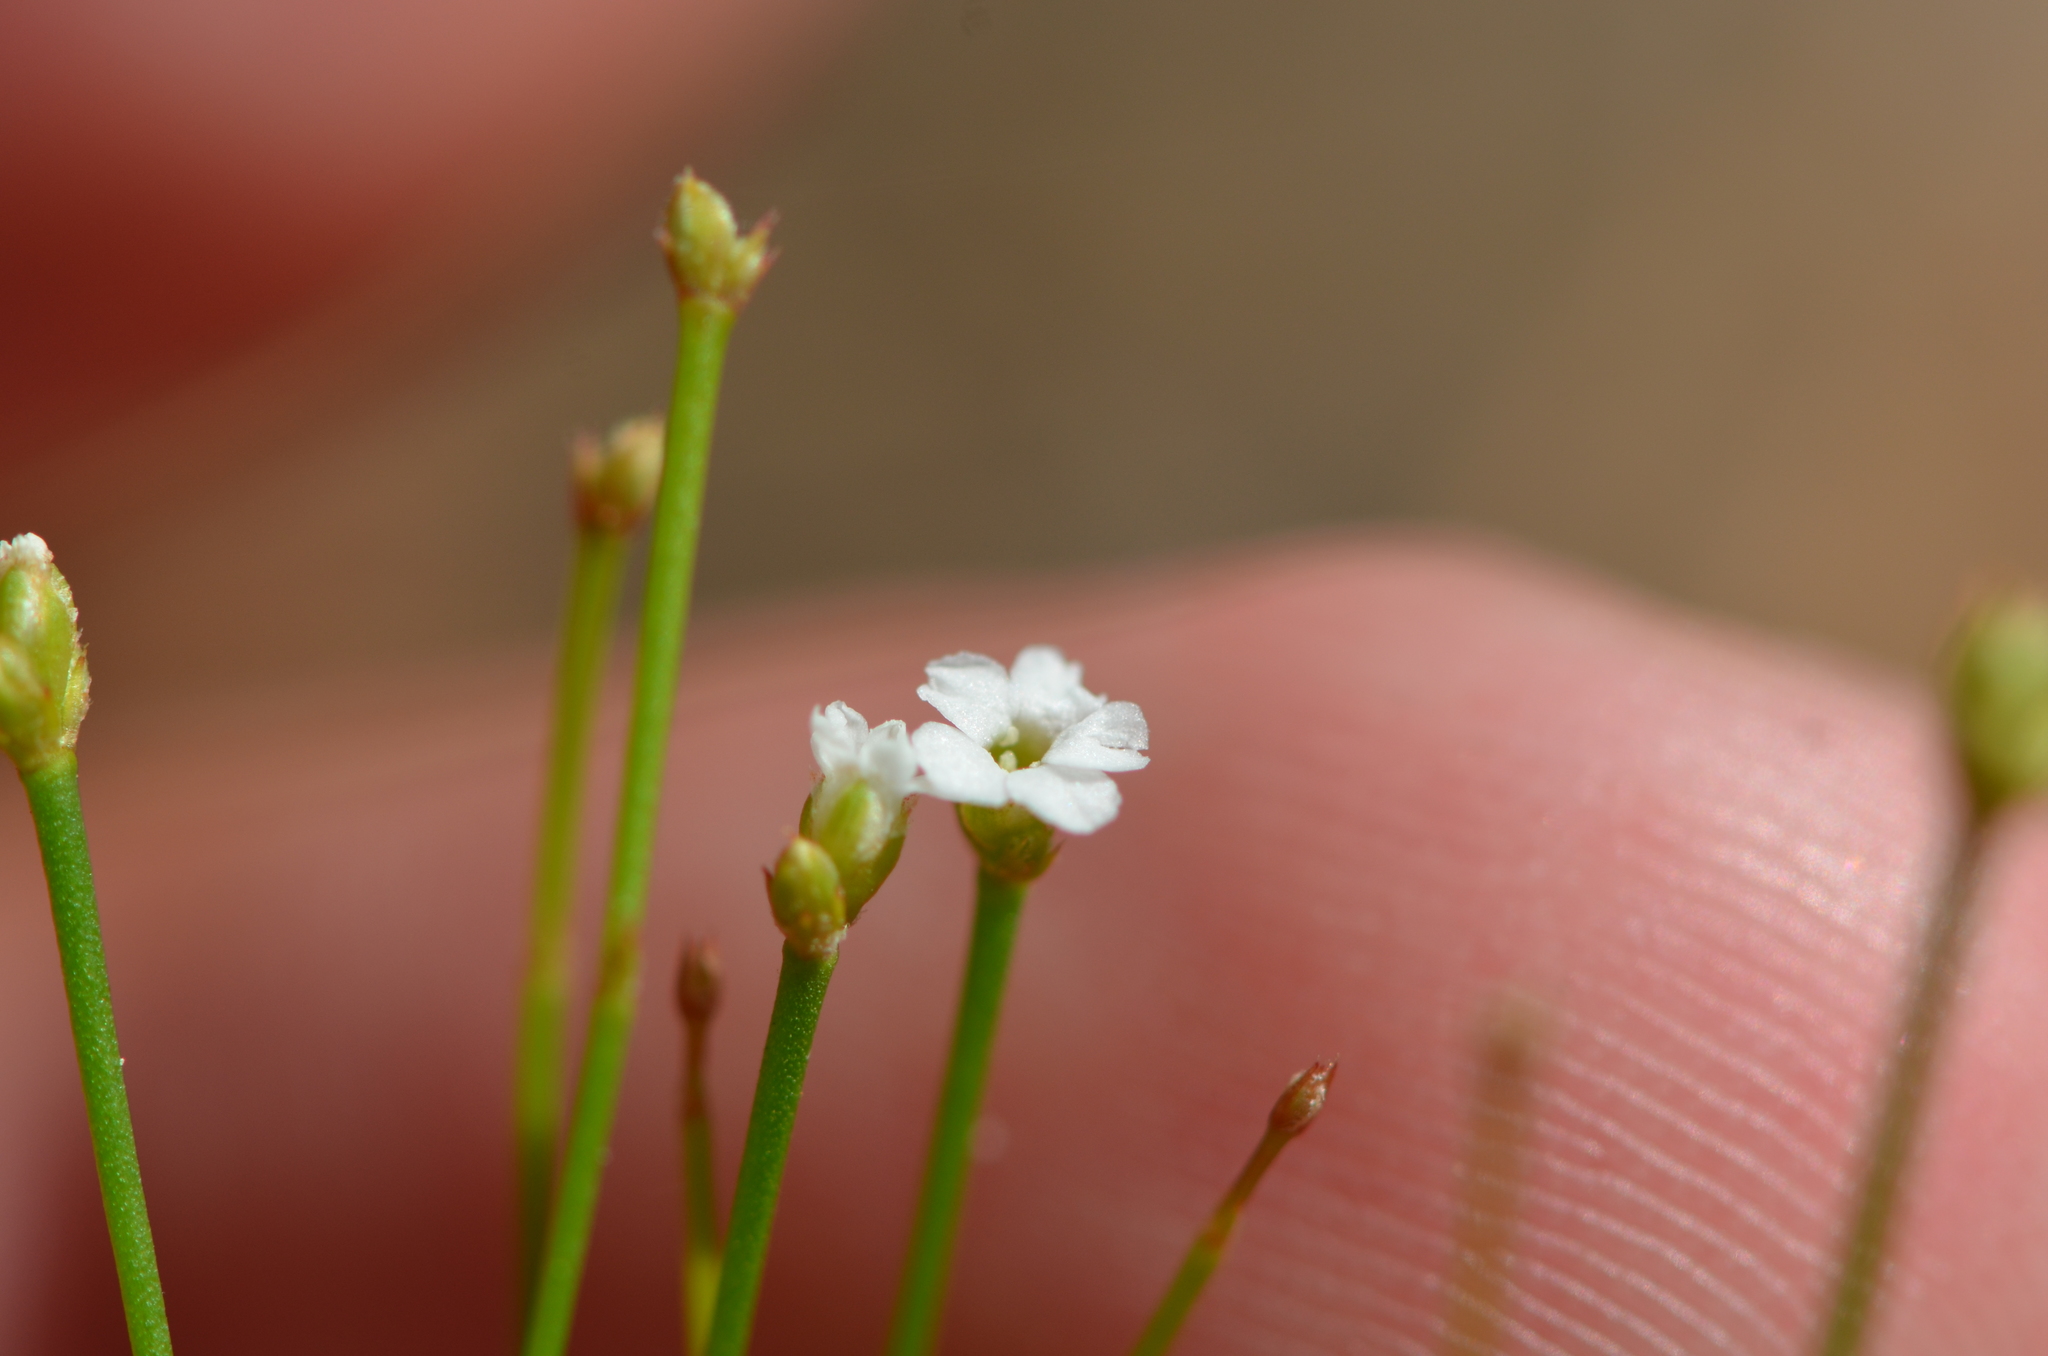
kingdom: Plantae
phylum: Tracheophyta
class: Magnoliopsida
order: Caryophyllales
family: Caryophyllaceae
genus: Stipulicida
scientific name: Stipulicida setacea
